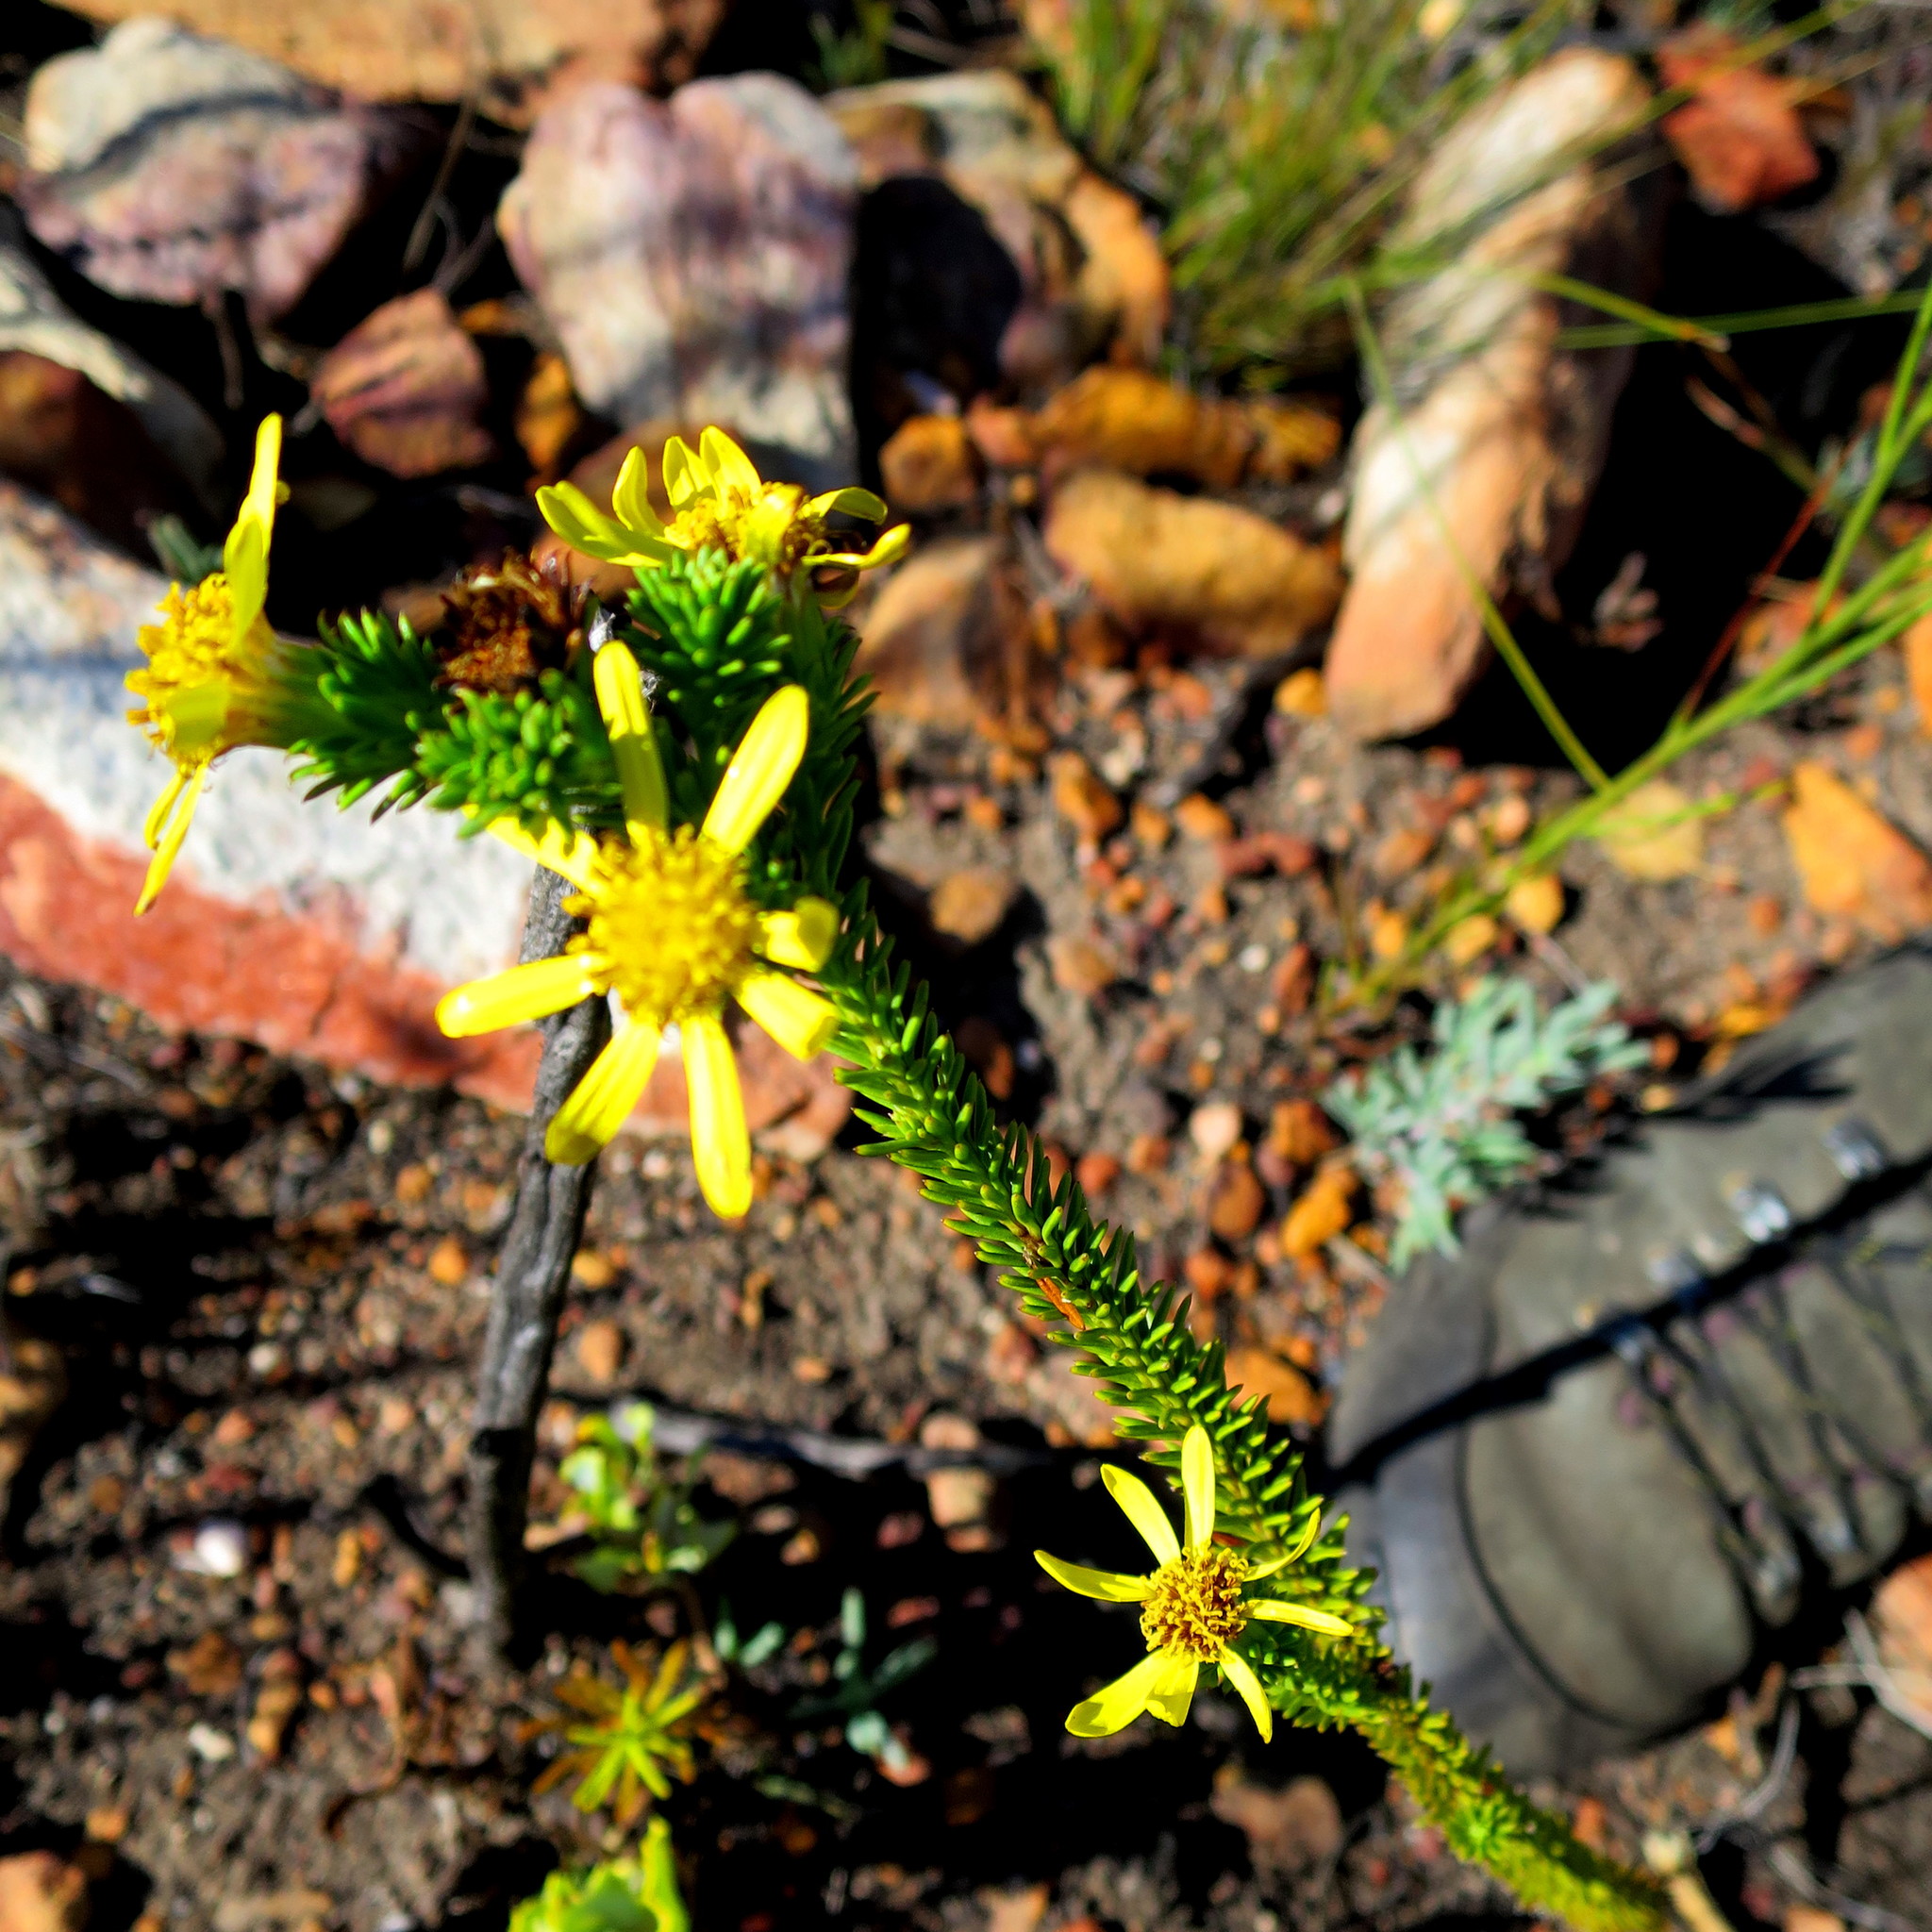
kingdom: Plantae
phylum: Tracheophyta
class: Magnoliopsida
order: Asterales
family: Asteraceae
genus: Senecio
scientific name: Senecio pinifolius
